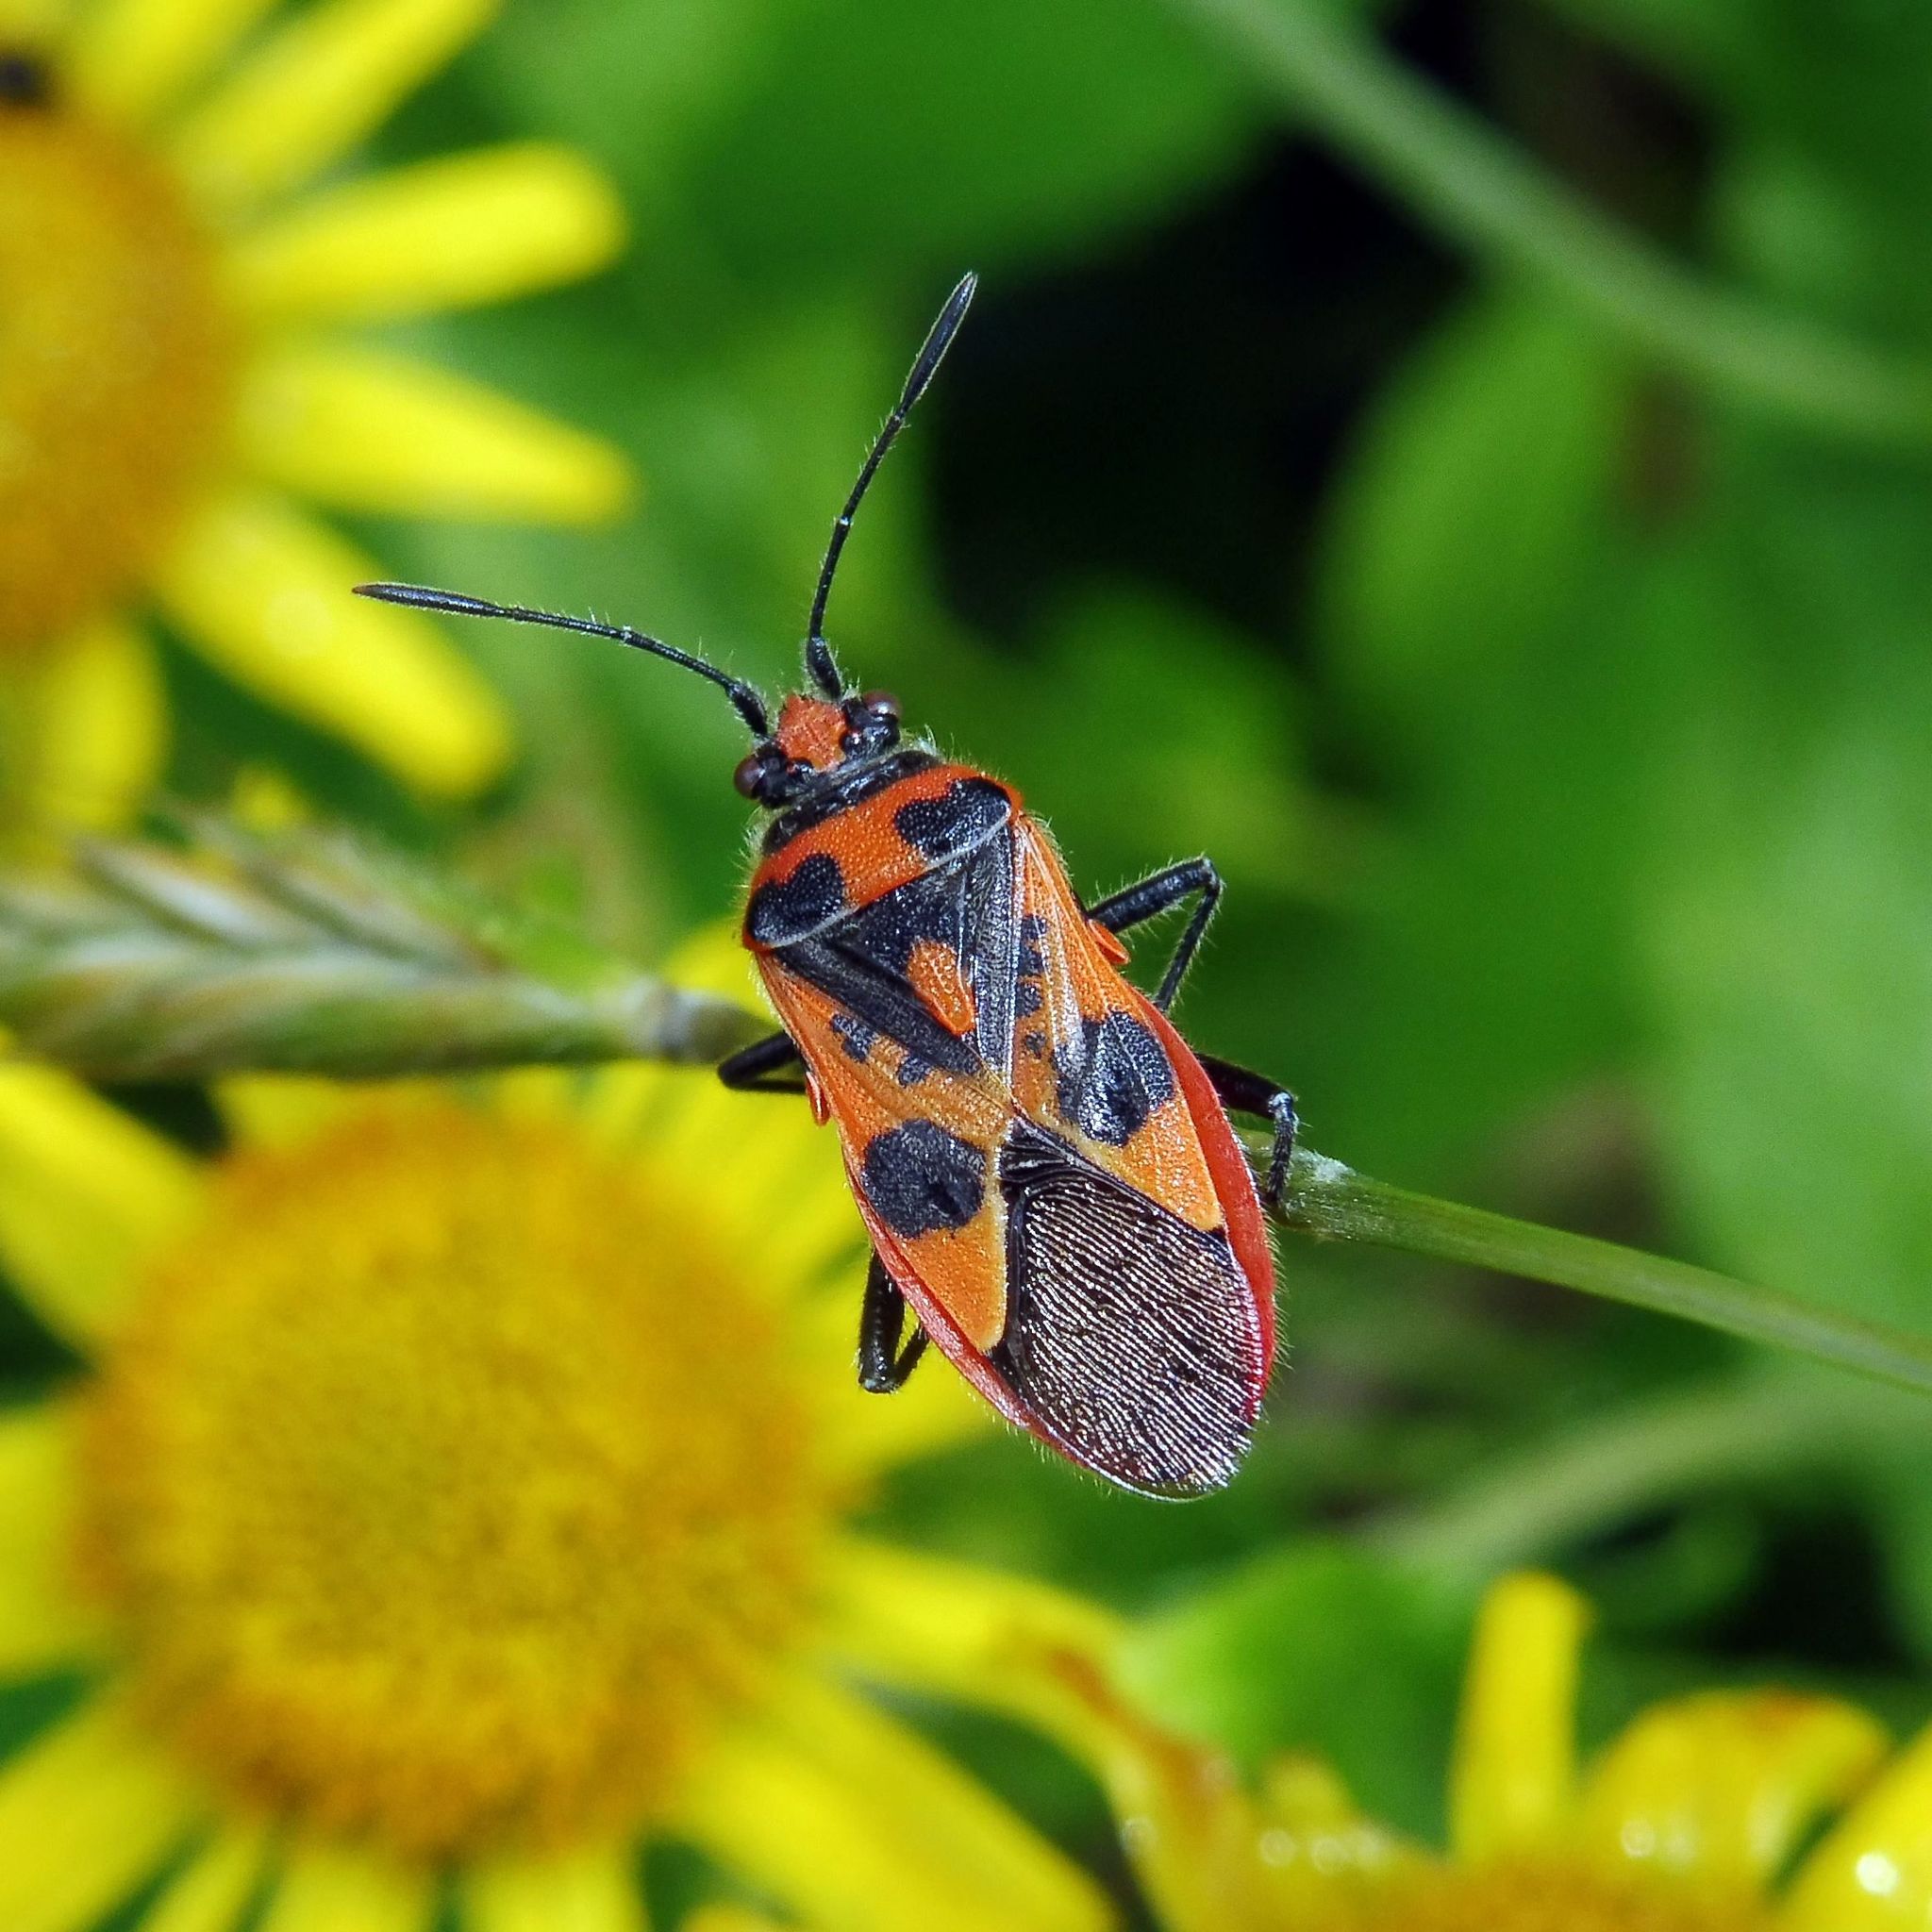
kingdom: Animalia
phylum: Arthropoda
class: Insecta
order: Hemiptera
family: Rhopalidae
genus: Corizus
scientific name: Corizus hyoscyami
